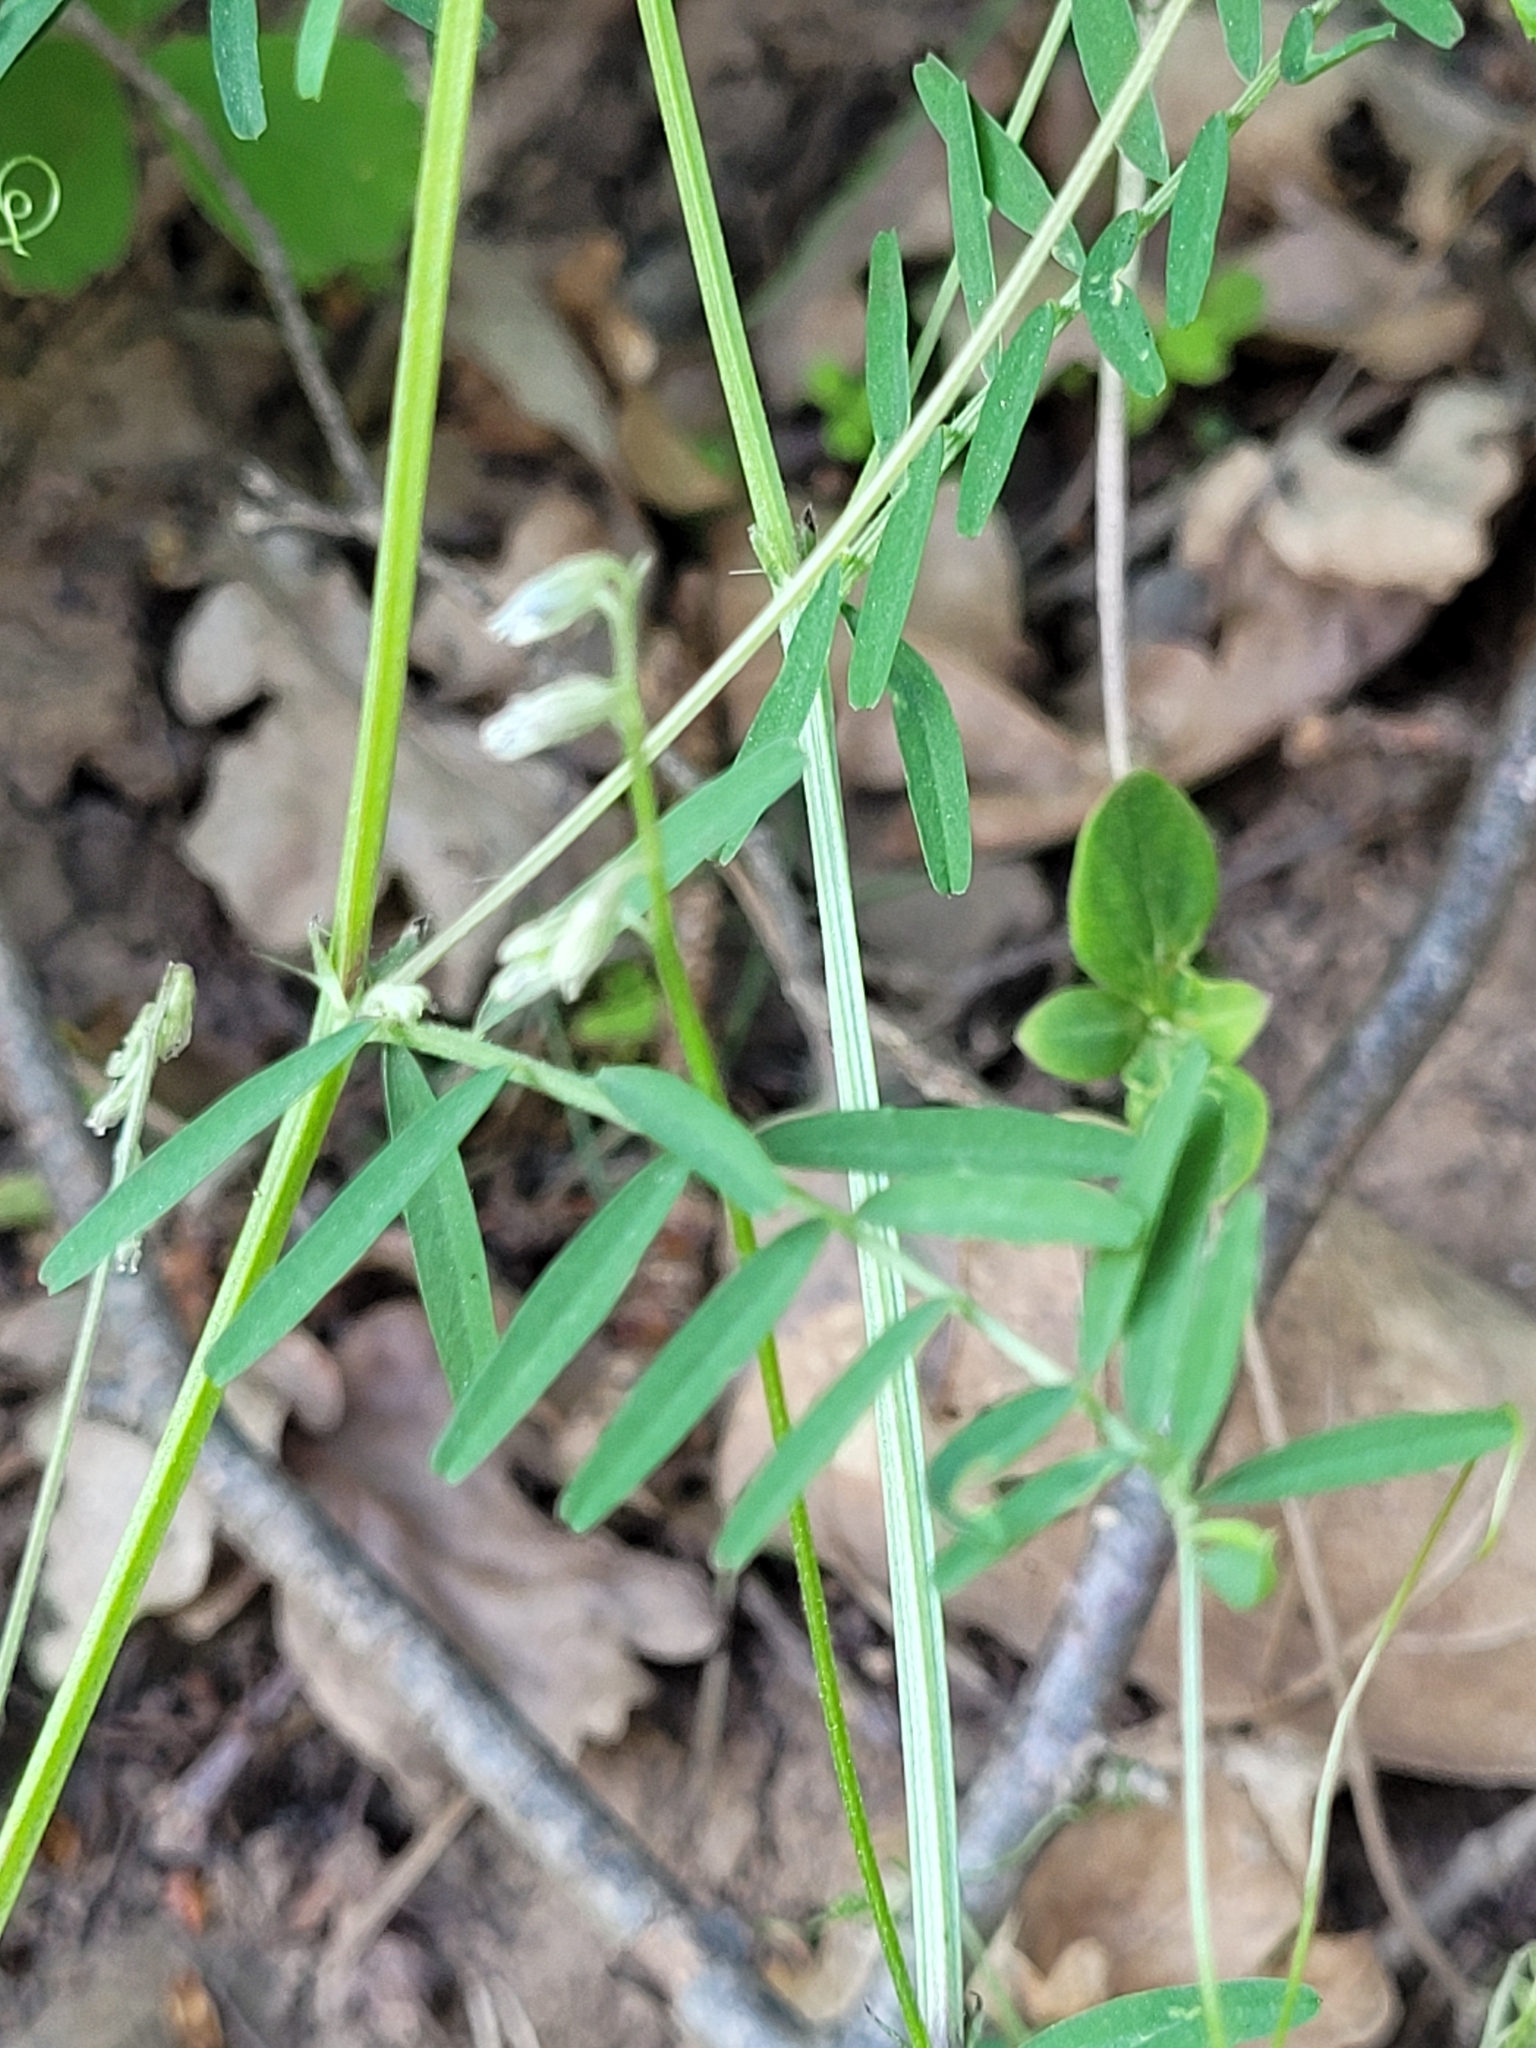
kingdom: Plantae
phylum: Tracheophyta
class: Magnoliopsida
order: Fabales
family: Fabaceae
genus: Vicia
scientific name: Vicia hirsuta
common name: Tiny vetch
